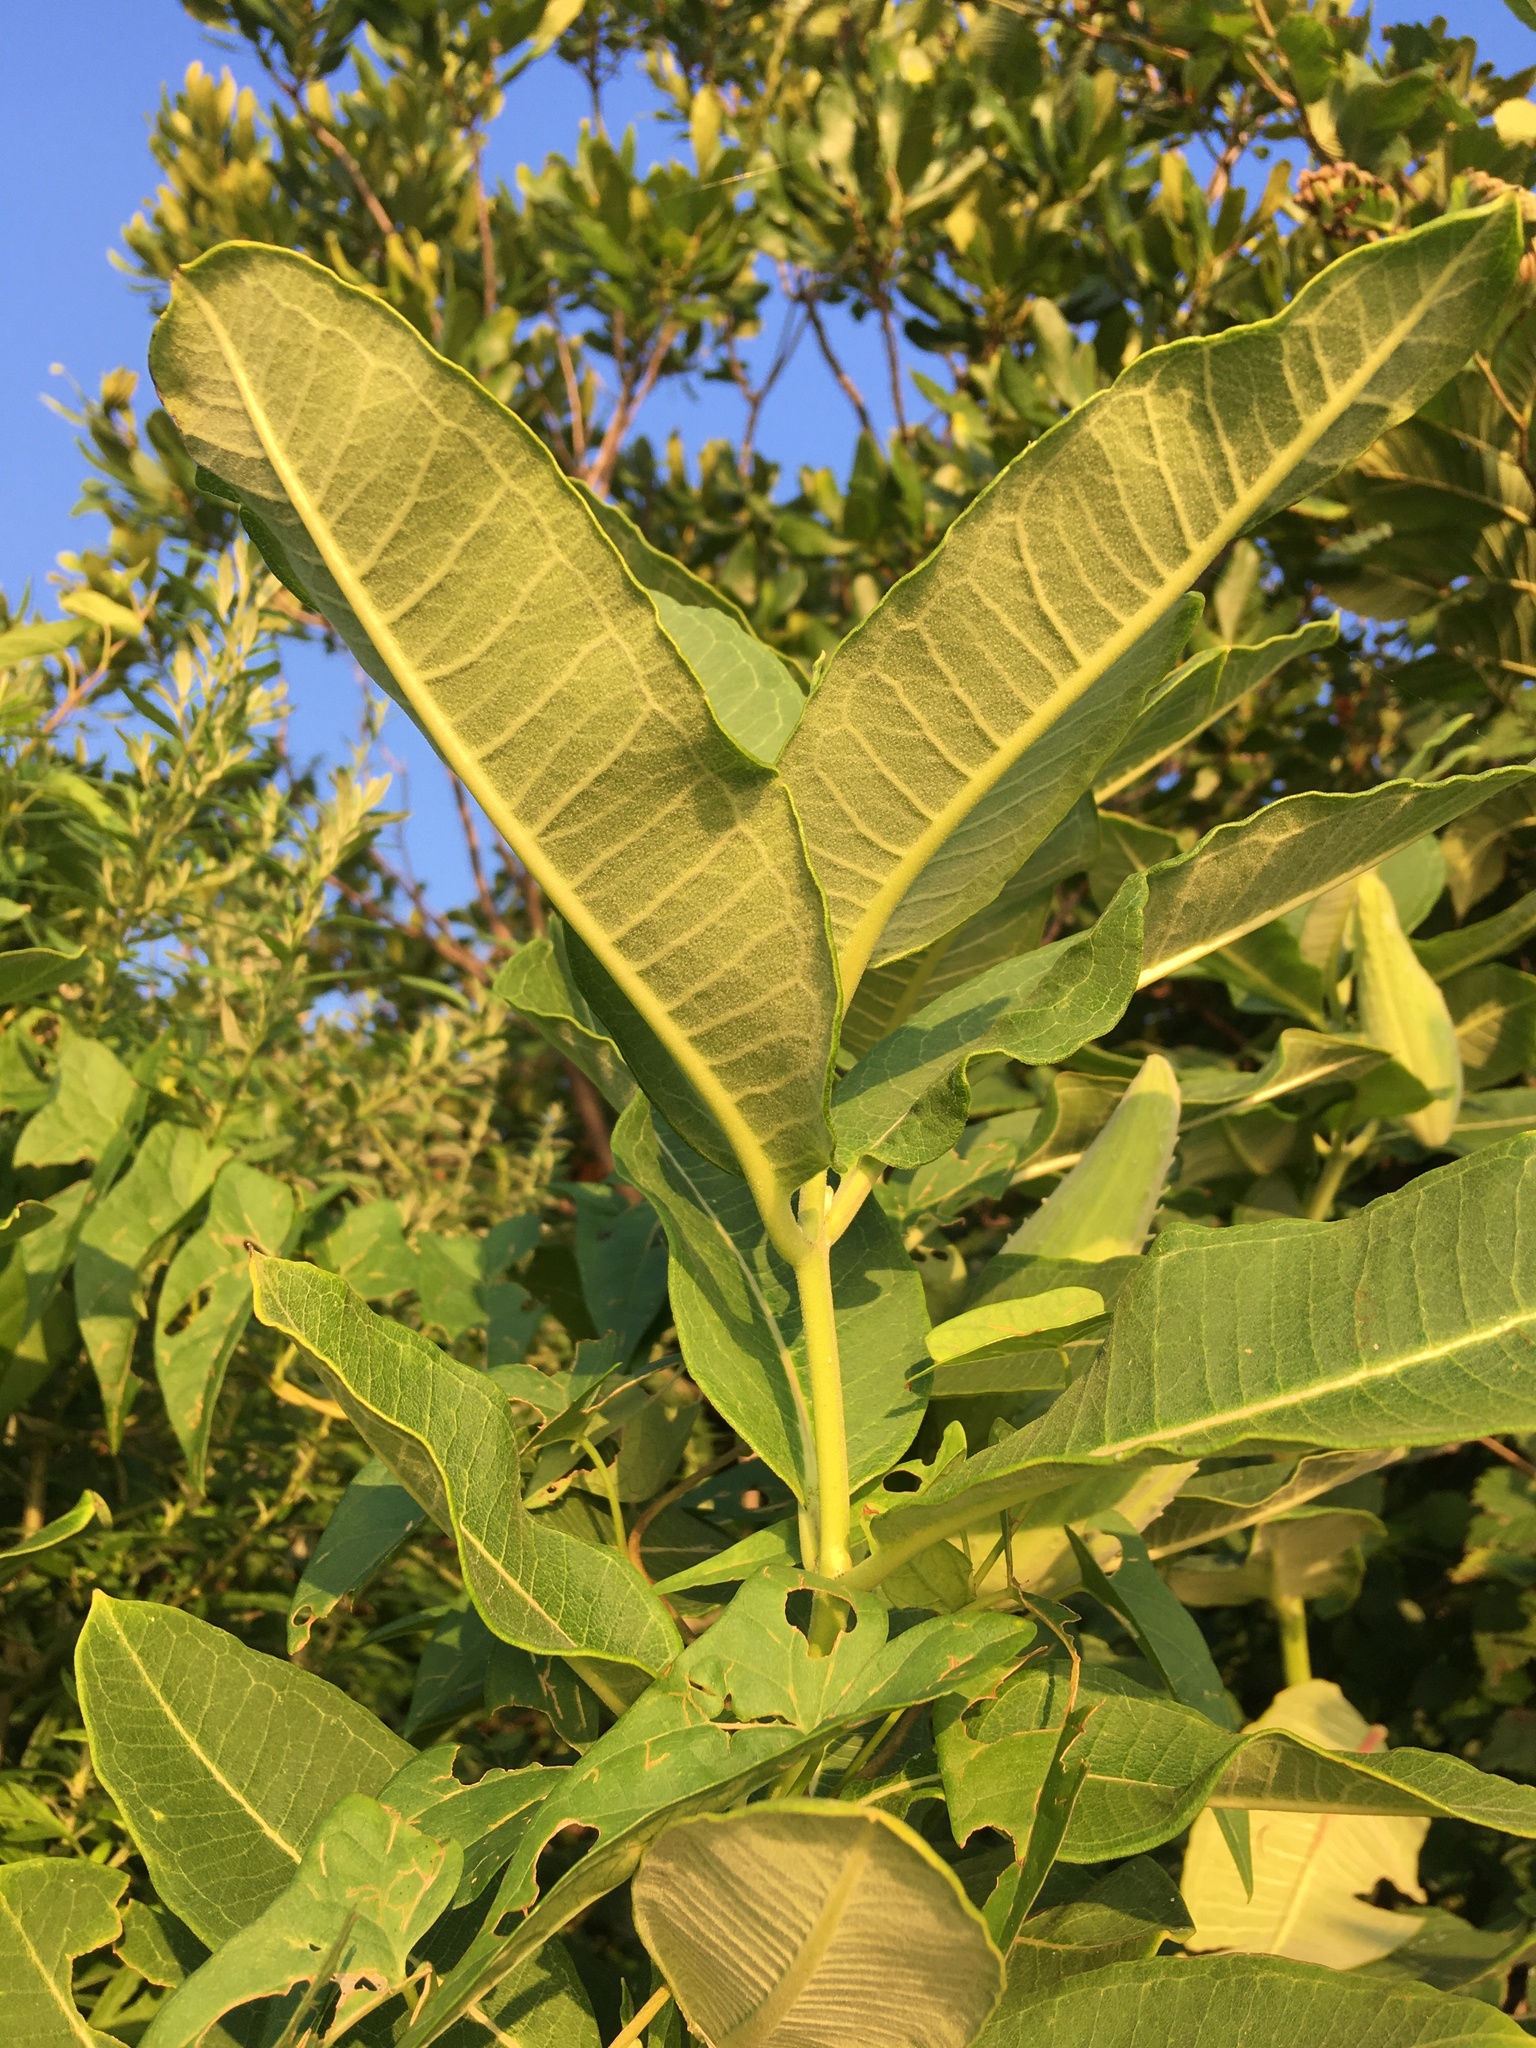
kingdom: Plantae
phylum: Tracheophyta
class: Magnoliopsida
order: Gentianales
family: Apocynaceae
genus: Asclepias
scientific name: Asclepias syriaca
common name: Common milkweed
